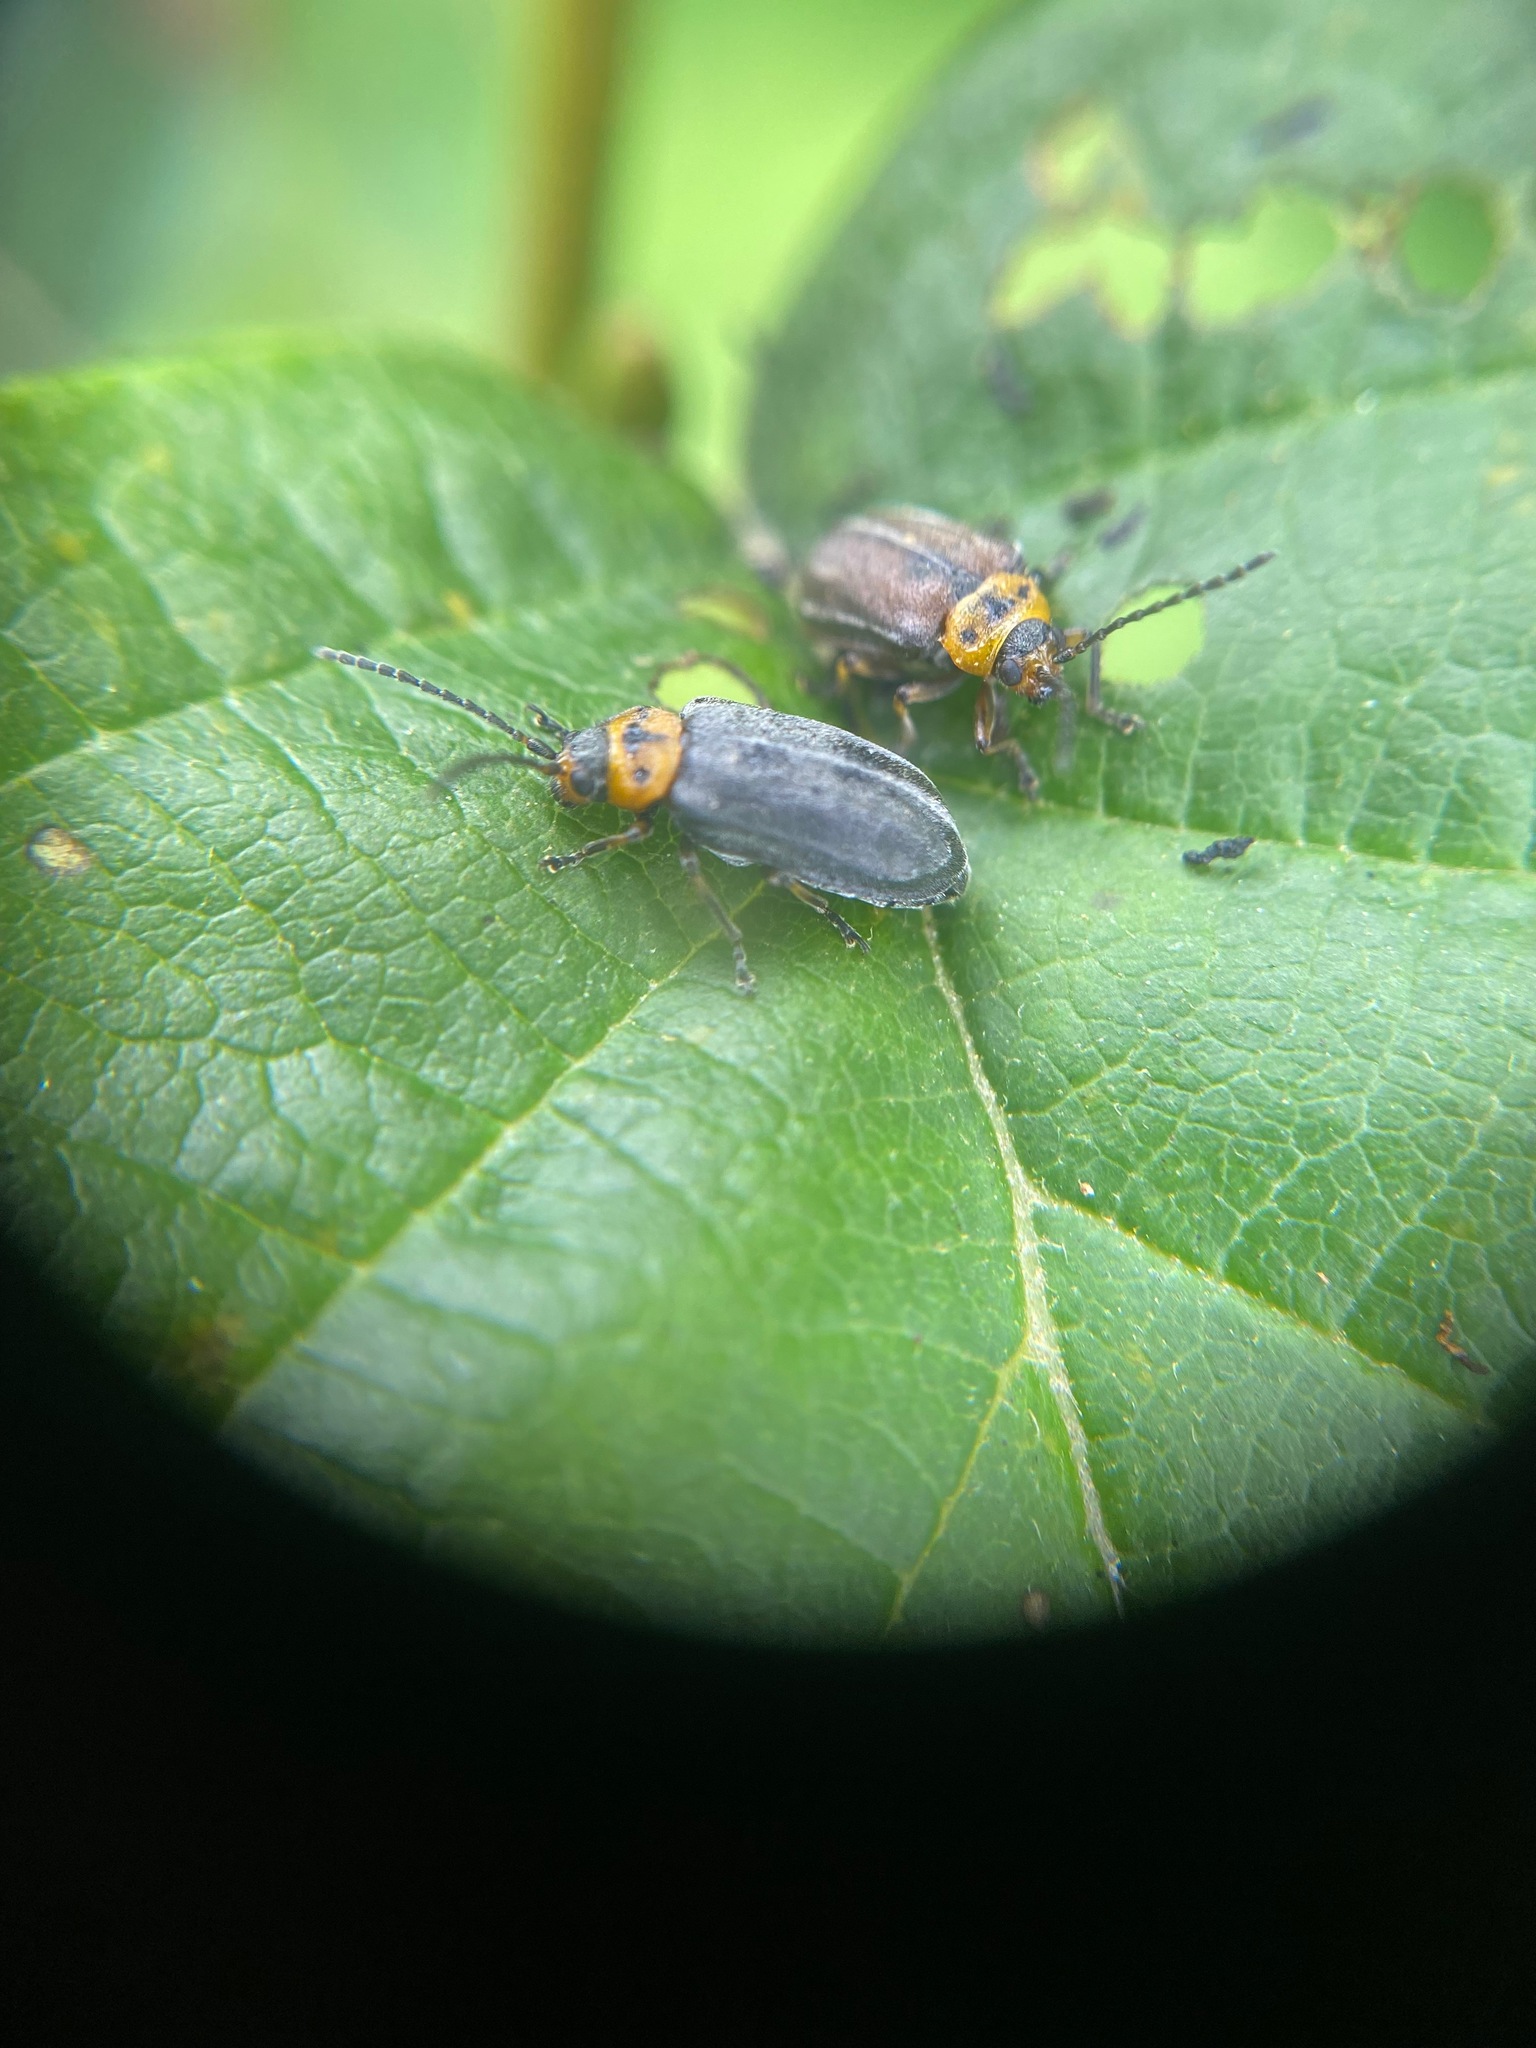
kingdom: Animalia
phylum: Arthropoda
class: Insecta
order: Coleoptera
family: Chrysomelidae
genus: Tricholochmaea
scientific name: Tricholochmaea punctipennis
